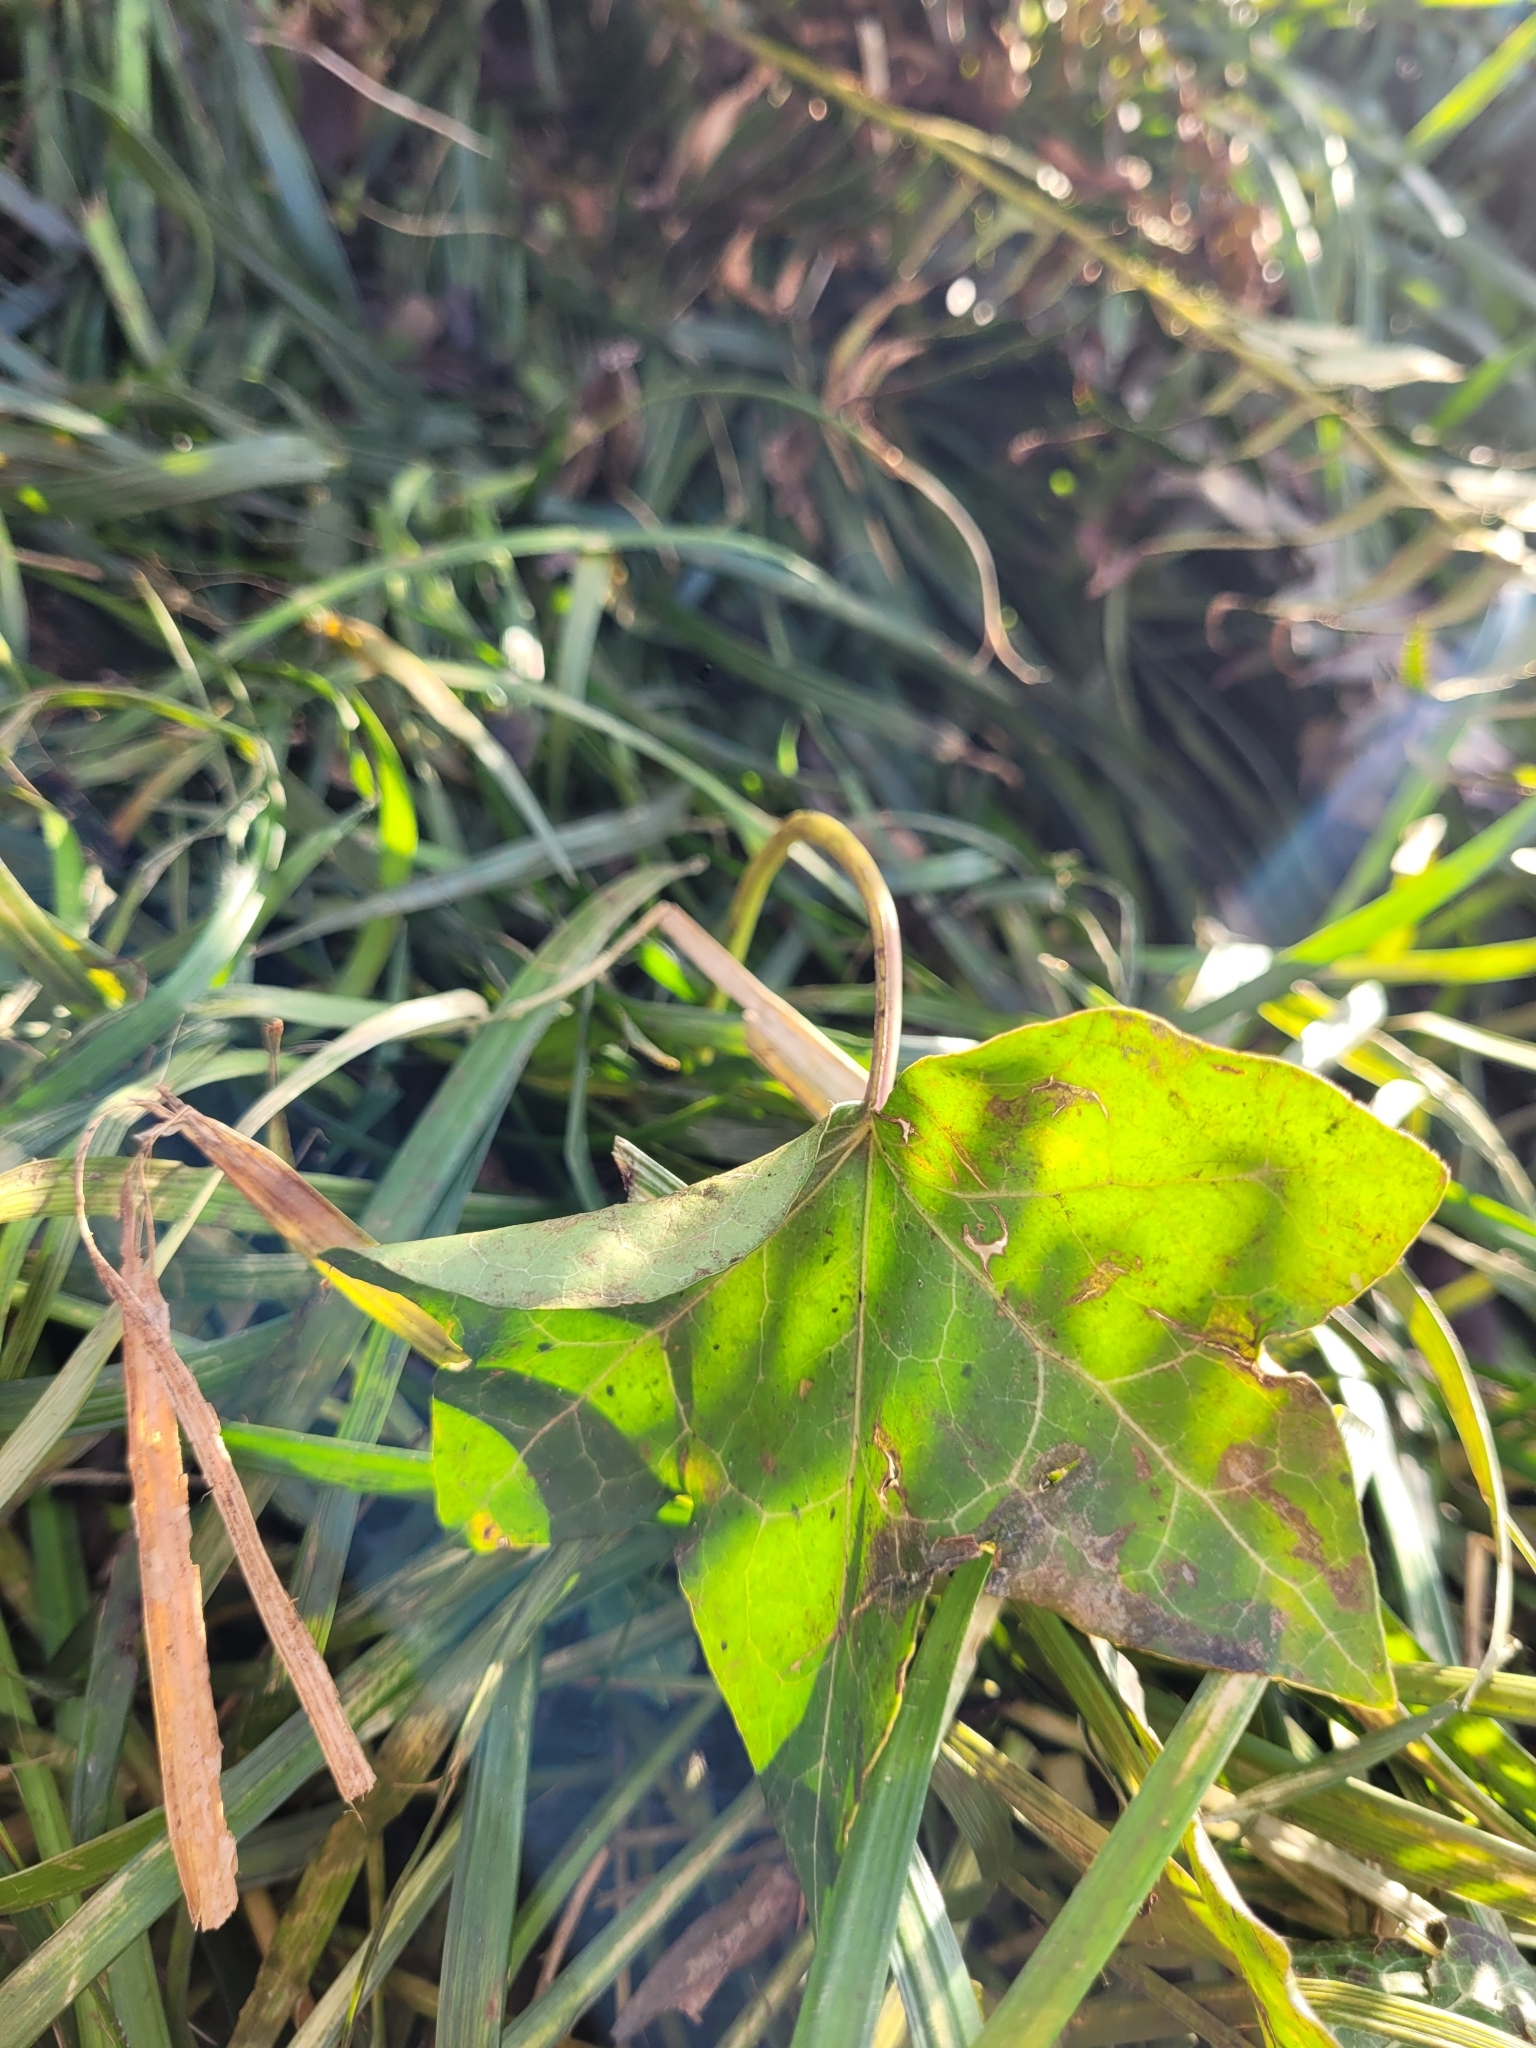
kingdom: Plantae
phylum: Tracheophyta
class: Magnoliopsida
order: Apiales
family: Araliaceae
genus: Hedera
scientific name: Hedera helix
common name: Ivy
